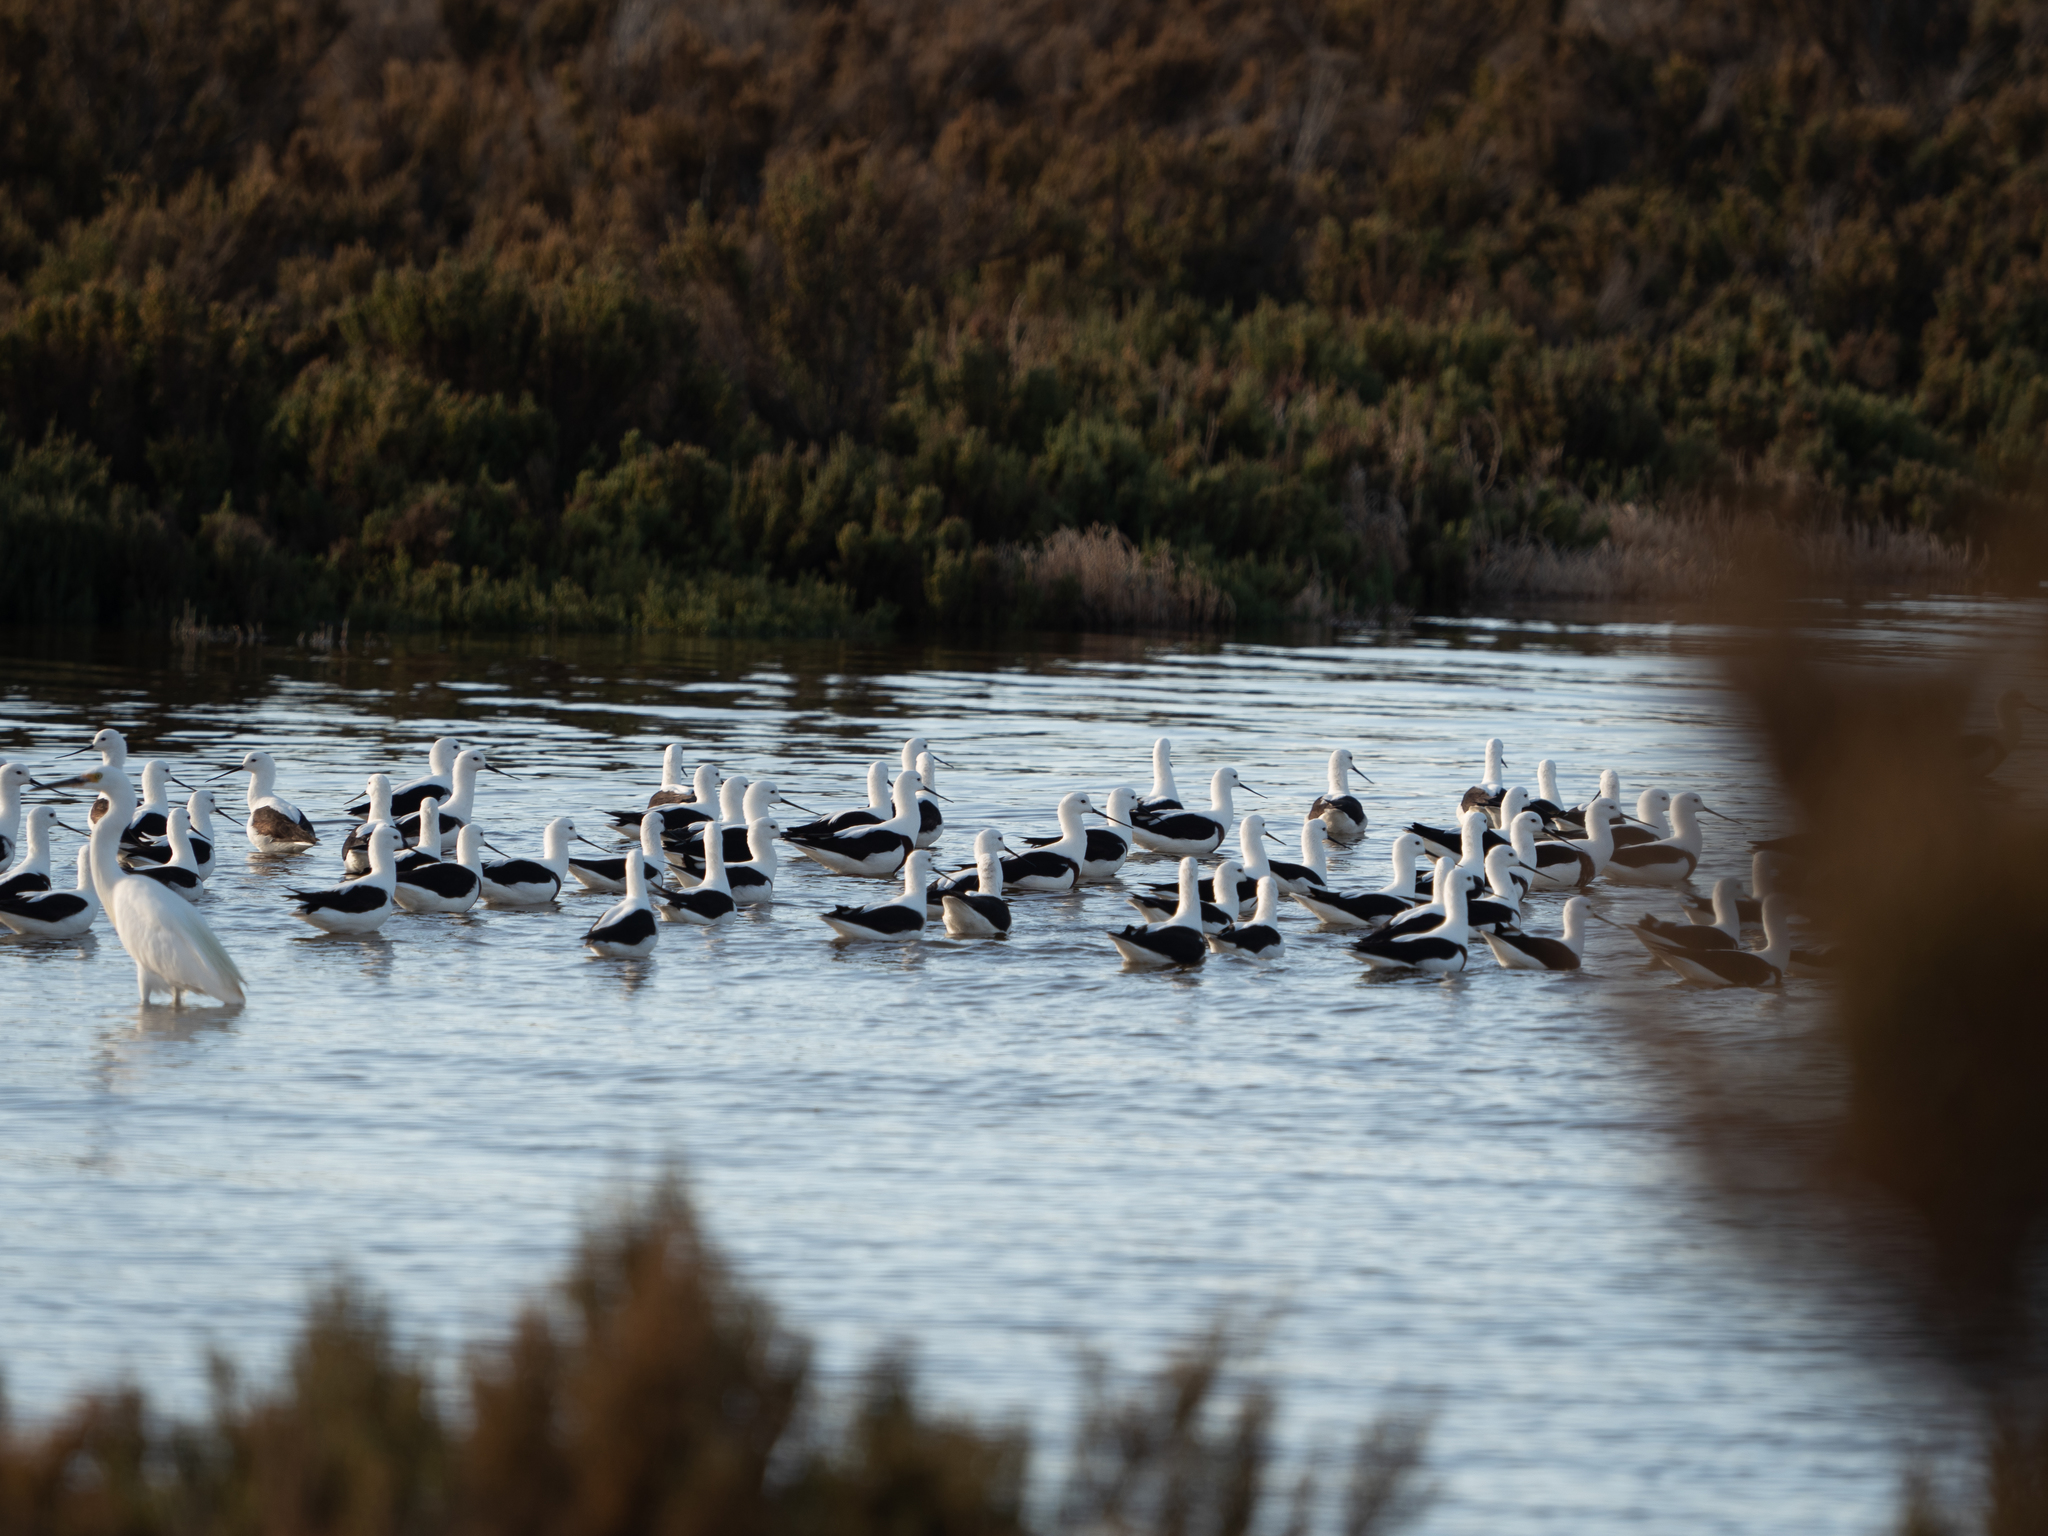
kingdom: Animalia
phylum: Chordata
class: Aves
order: Charadriiformes
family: Recurvirostridae
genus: Cladorhynchus
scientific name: Cladorhynchus leucocephalus
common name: Banded stilt
